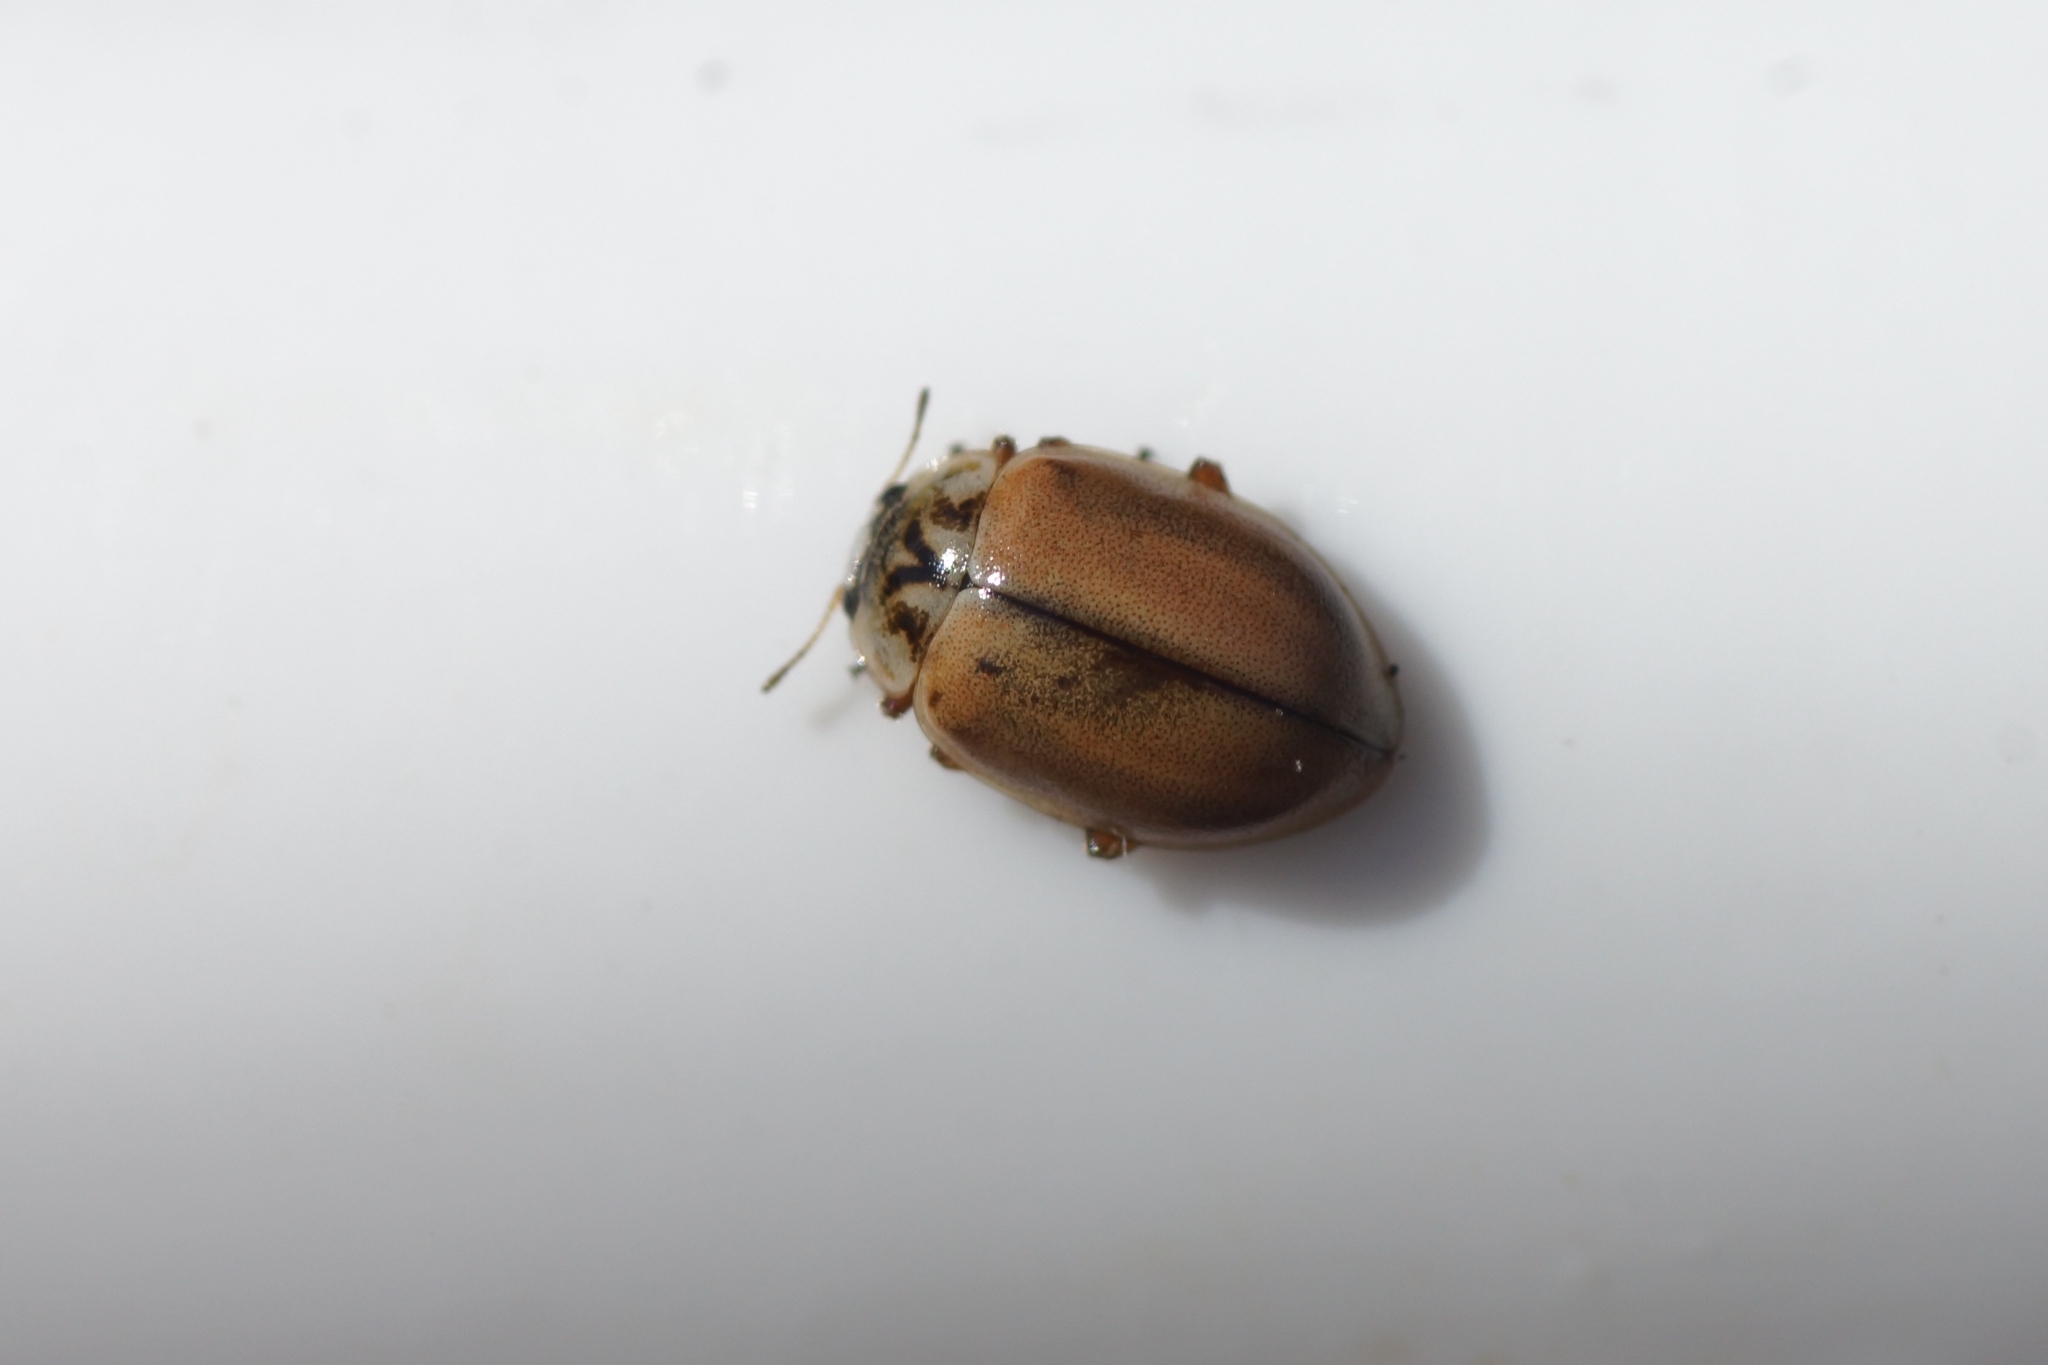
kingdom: Animalia
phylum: Arthropoda
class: Insecta
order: Coleoptera
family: Coccinellidae
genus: Aphidecta
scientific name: Aphidecta obliterata
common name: Larch ladybird
